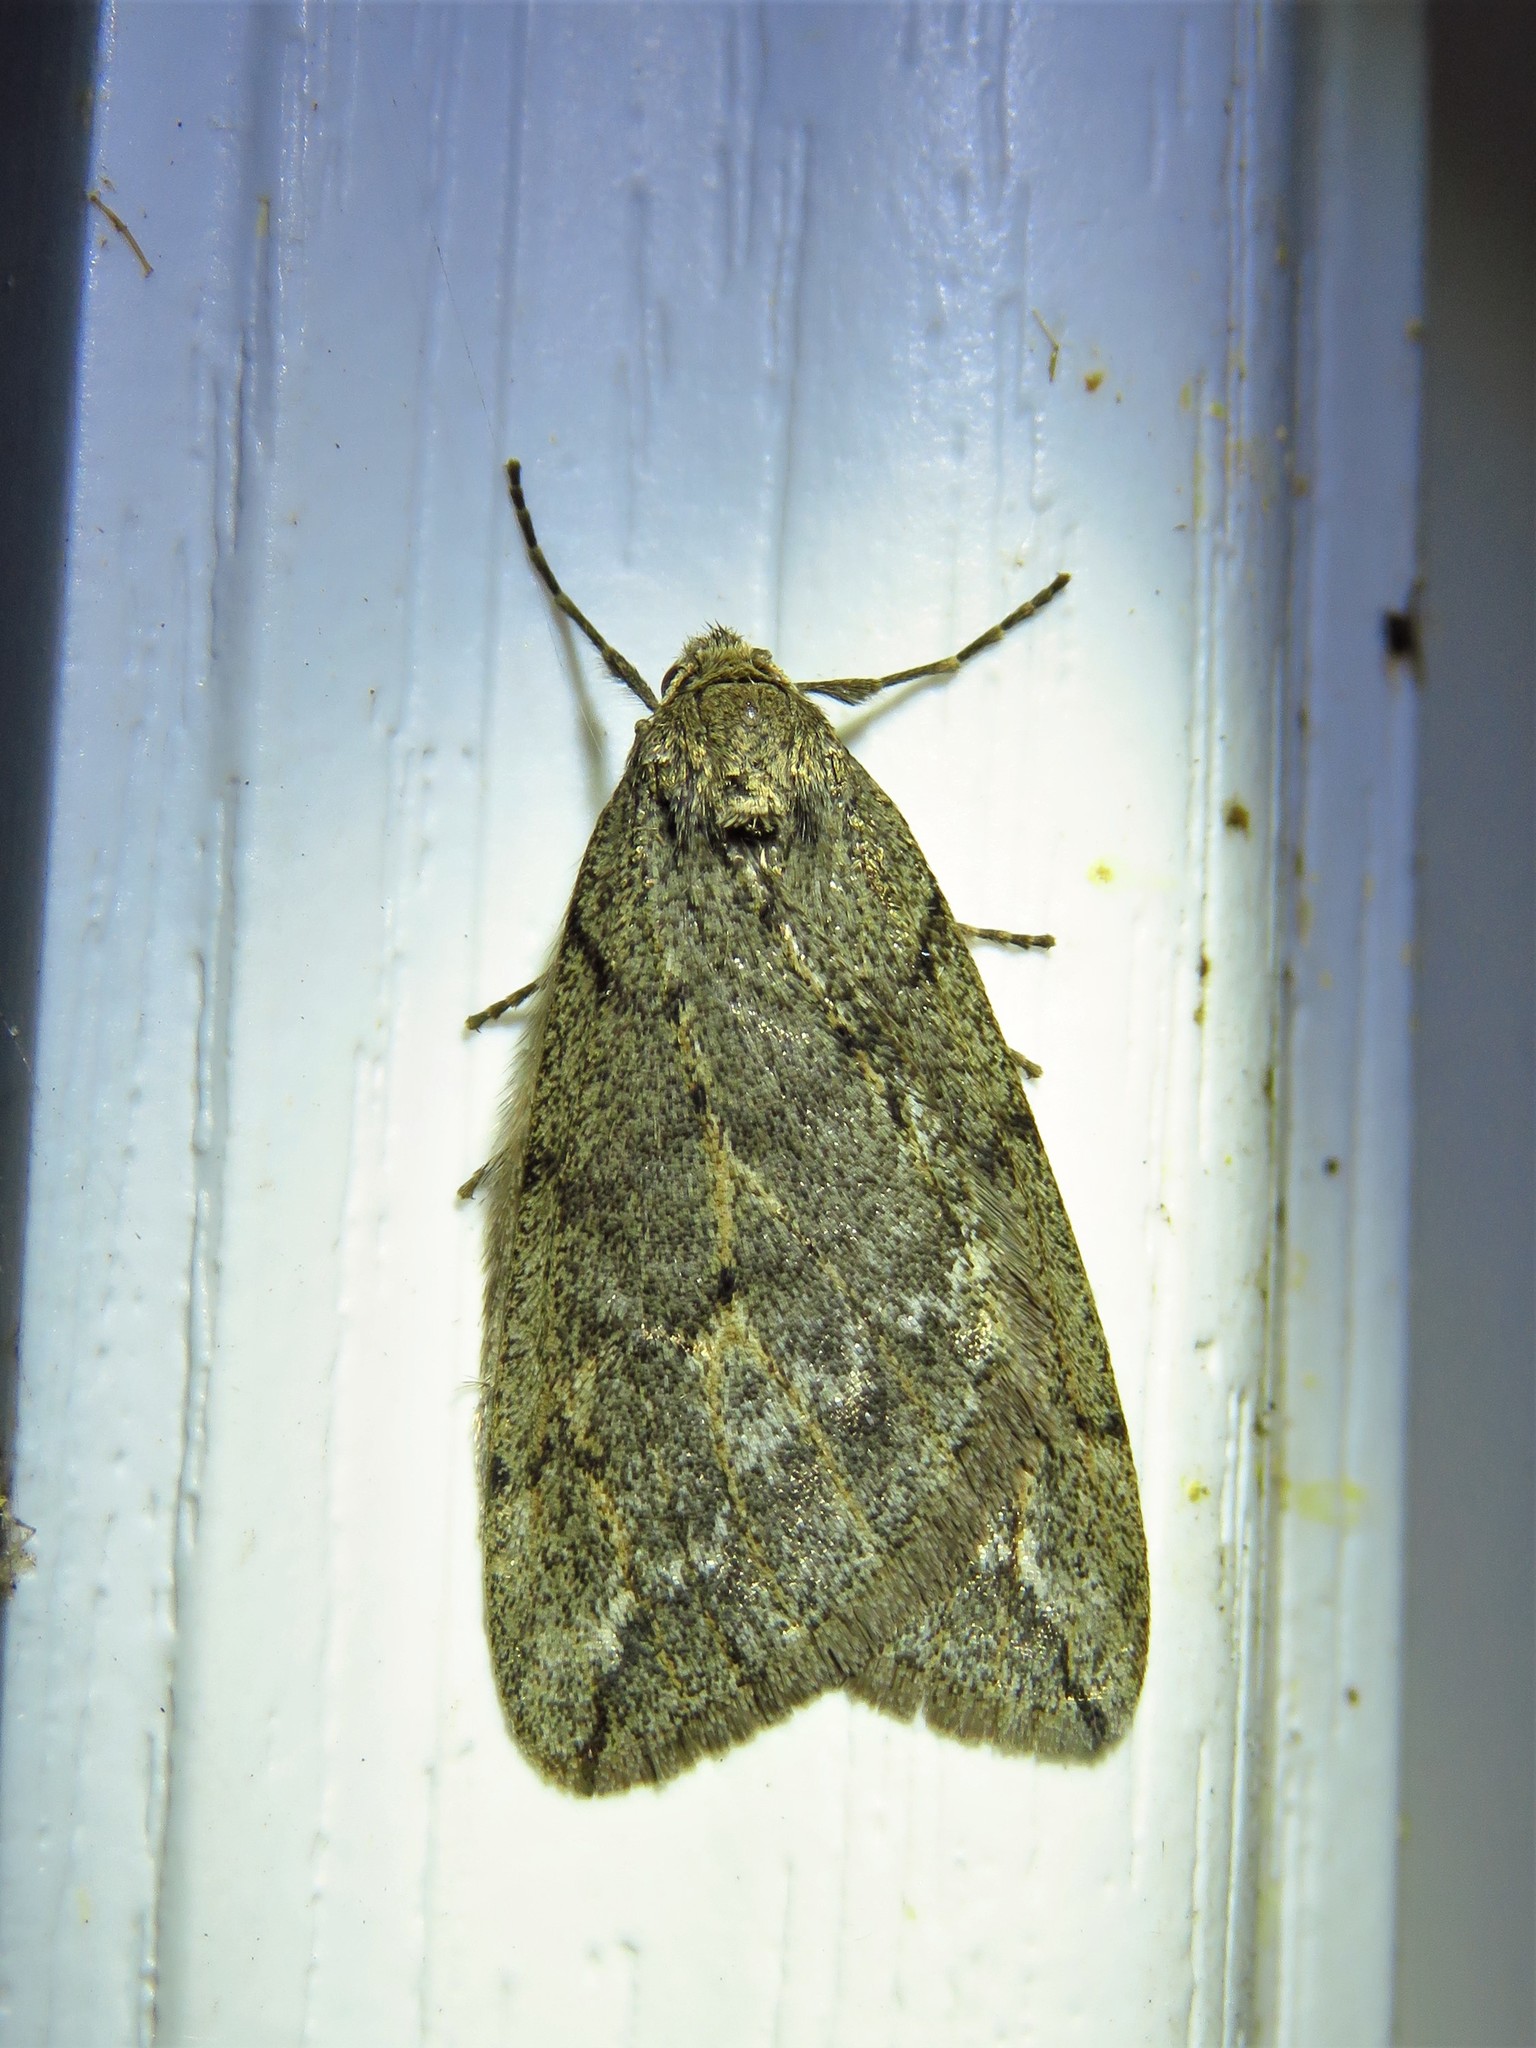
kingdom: Animalia
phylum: Arthropoda
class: Insecta
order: Lepidoptera
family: Geometridae
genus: Paleacrita
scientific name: Paleacrita vernata
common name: Spring cankerworm
